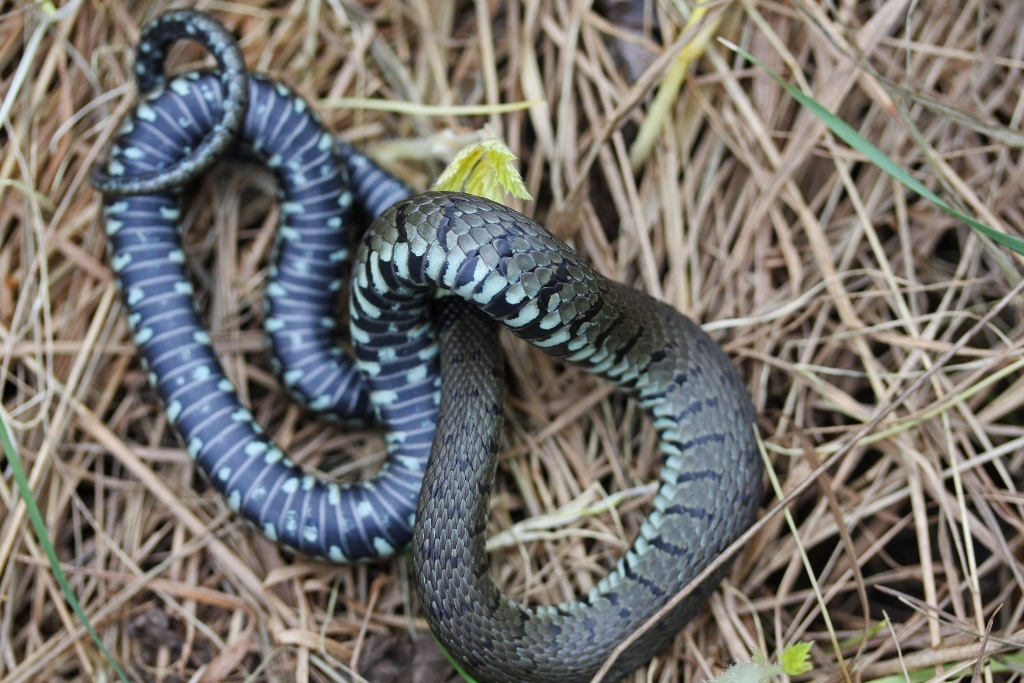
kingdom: Animalia
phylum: Chordata
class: Squamata
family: Colubridae
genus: Natrix
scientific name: Natrix helvetica
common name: Banded grass snake
